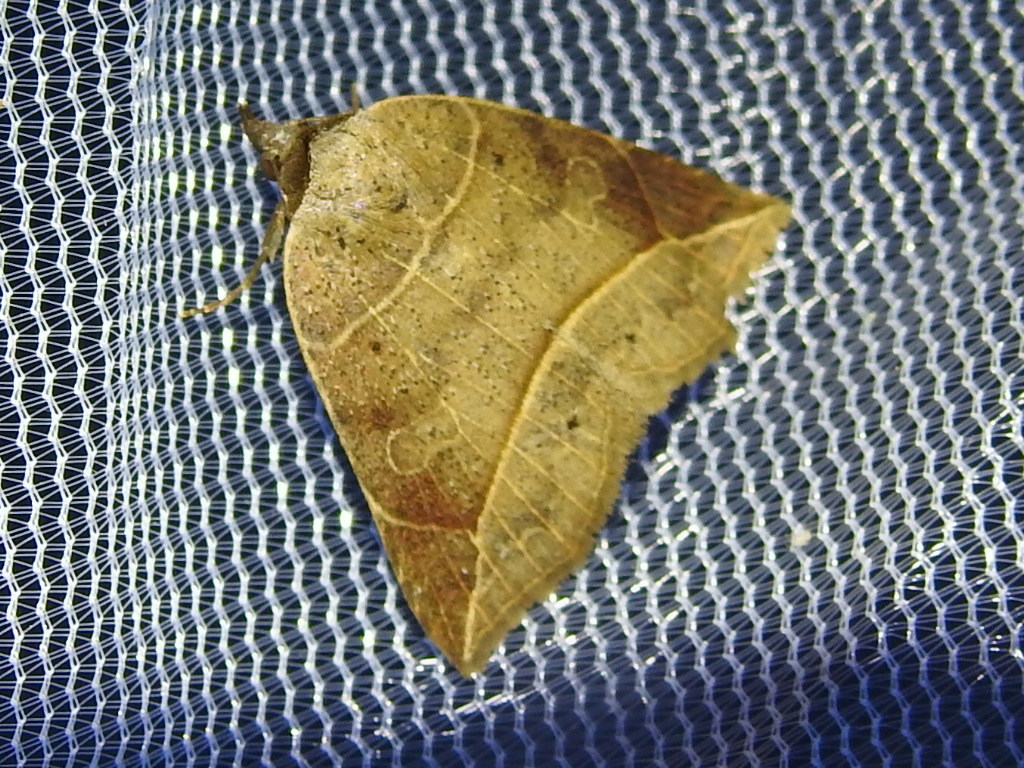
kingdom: Animalia
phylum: Arthropoda
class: Insecta
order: Lepidoptera
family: Erebidae
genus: Isogona
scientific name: Isogona tenuis
